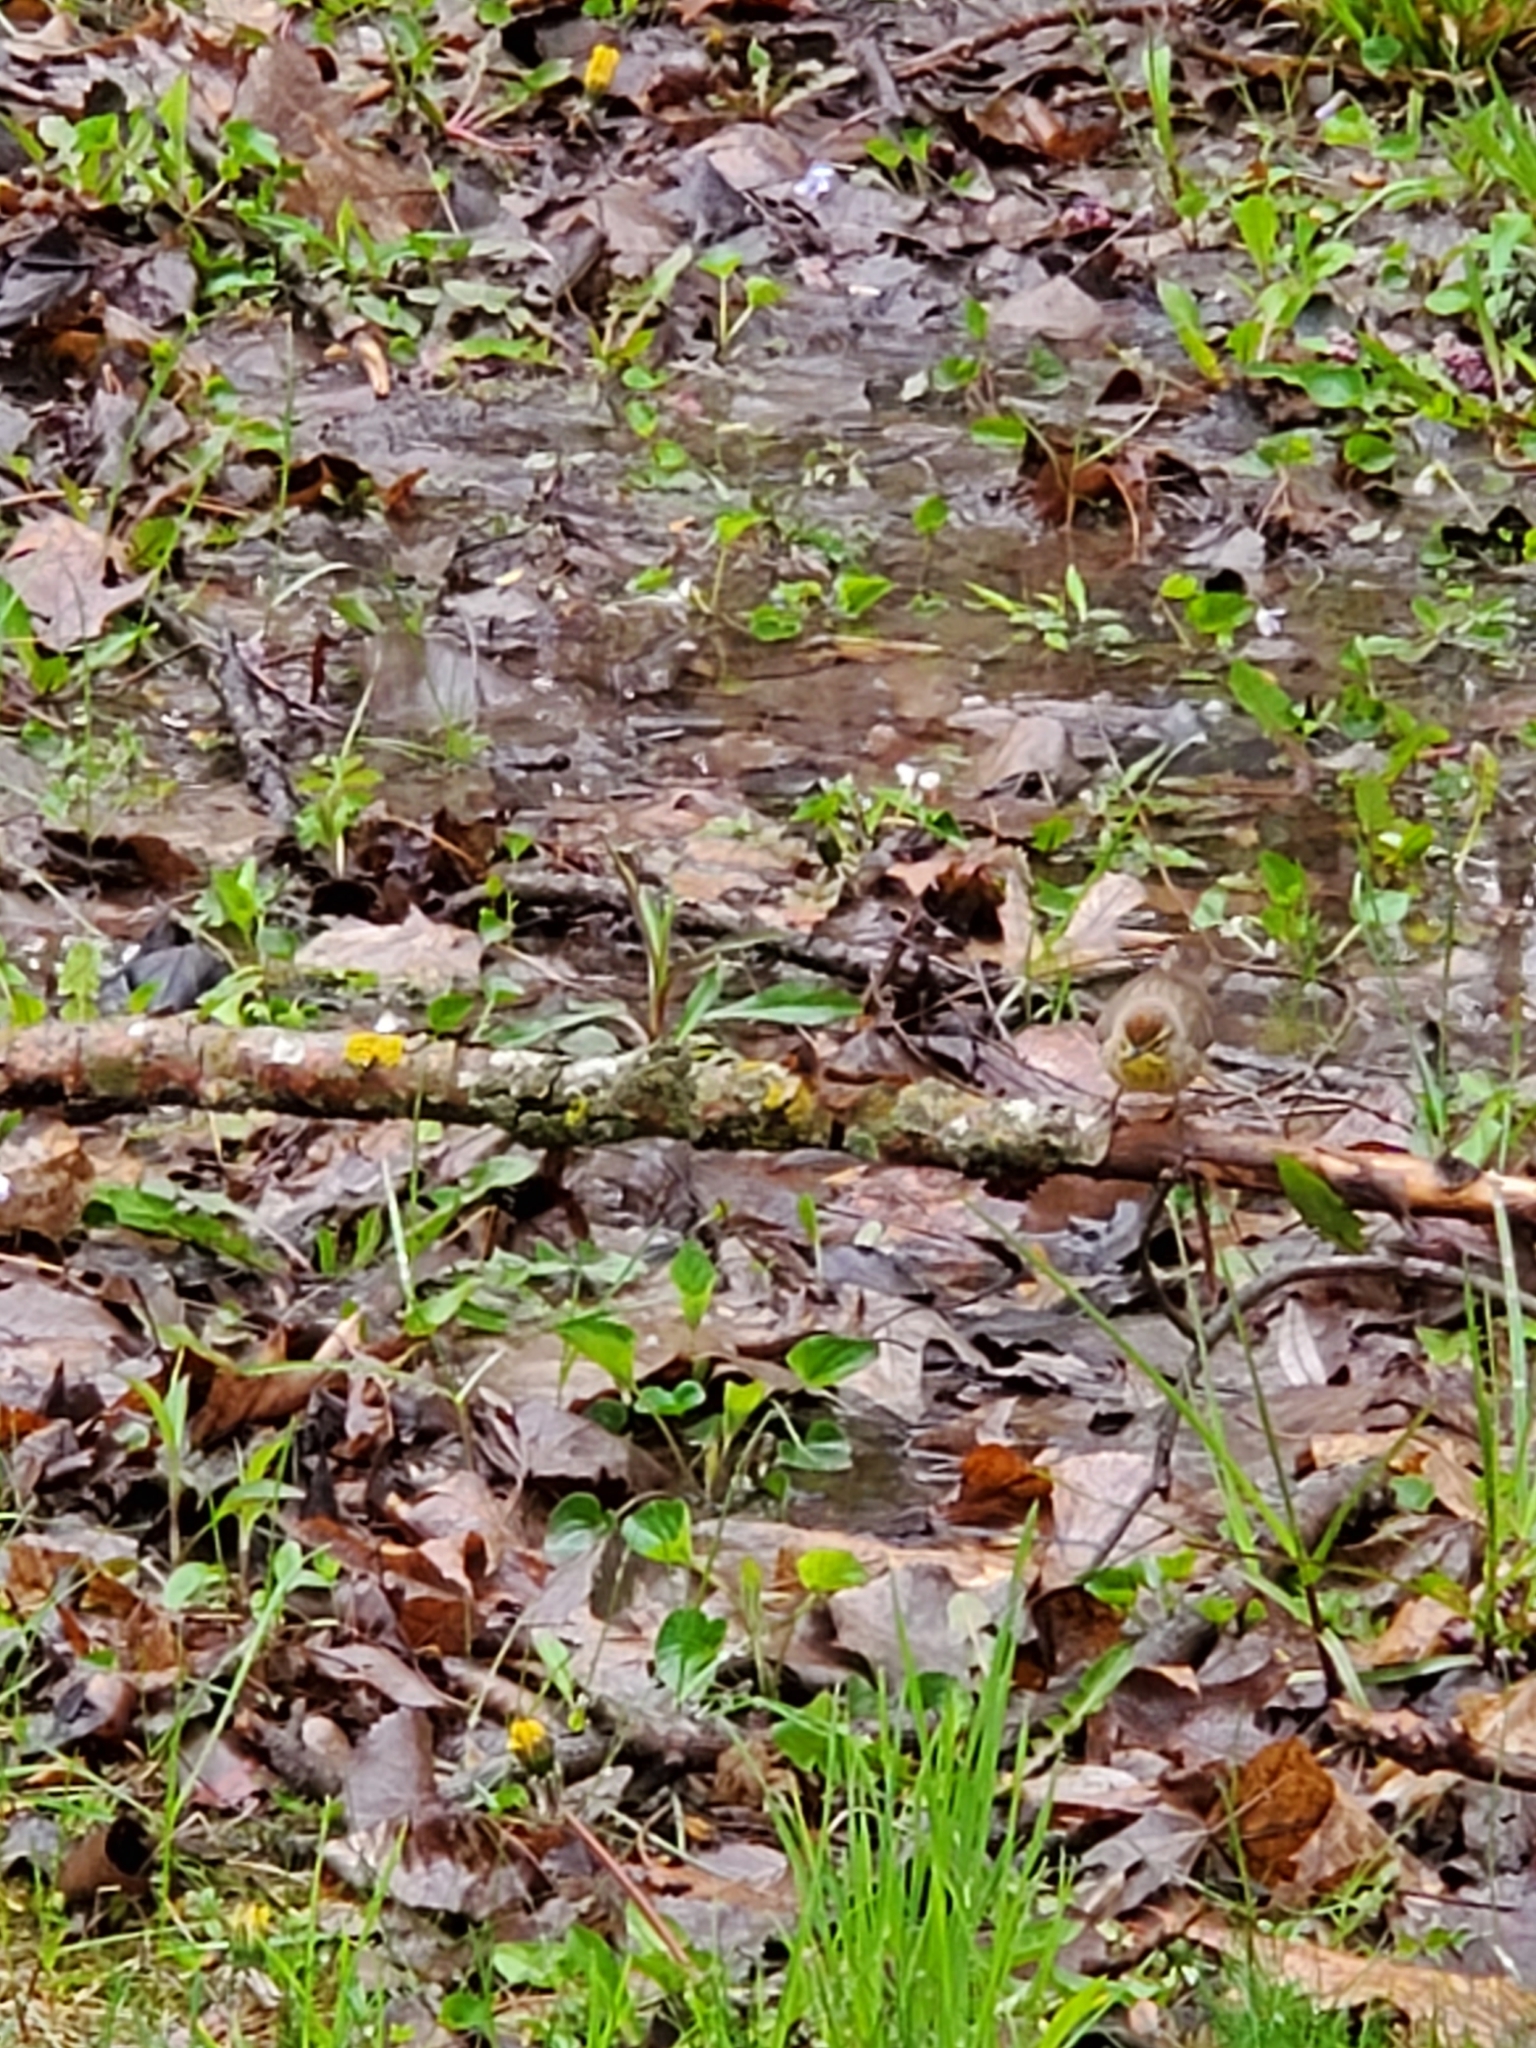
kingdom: Animalia
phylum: Chordata
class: Aves
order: Passeriformes
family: Parulidae
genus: Setophaga
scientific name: Setophaga palmarum
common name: Palm warbler
